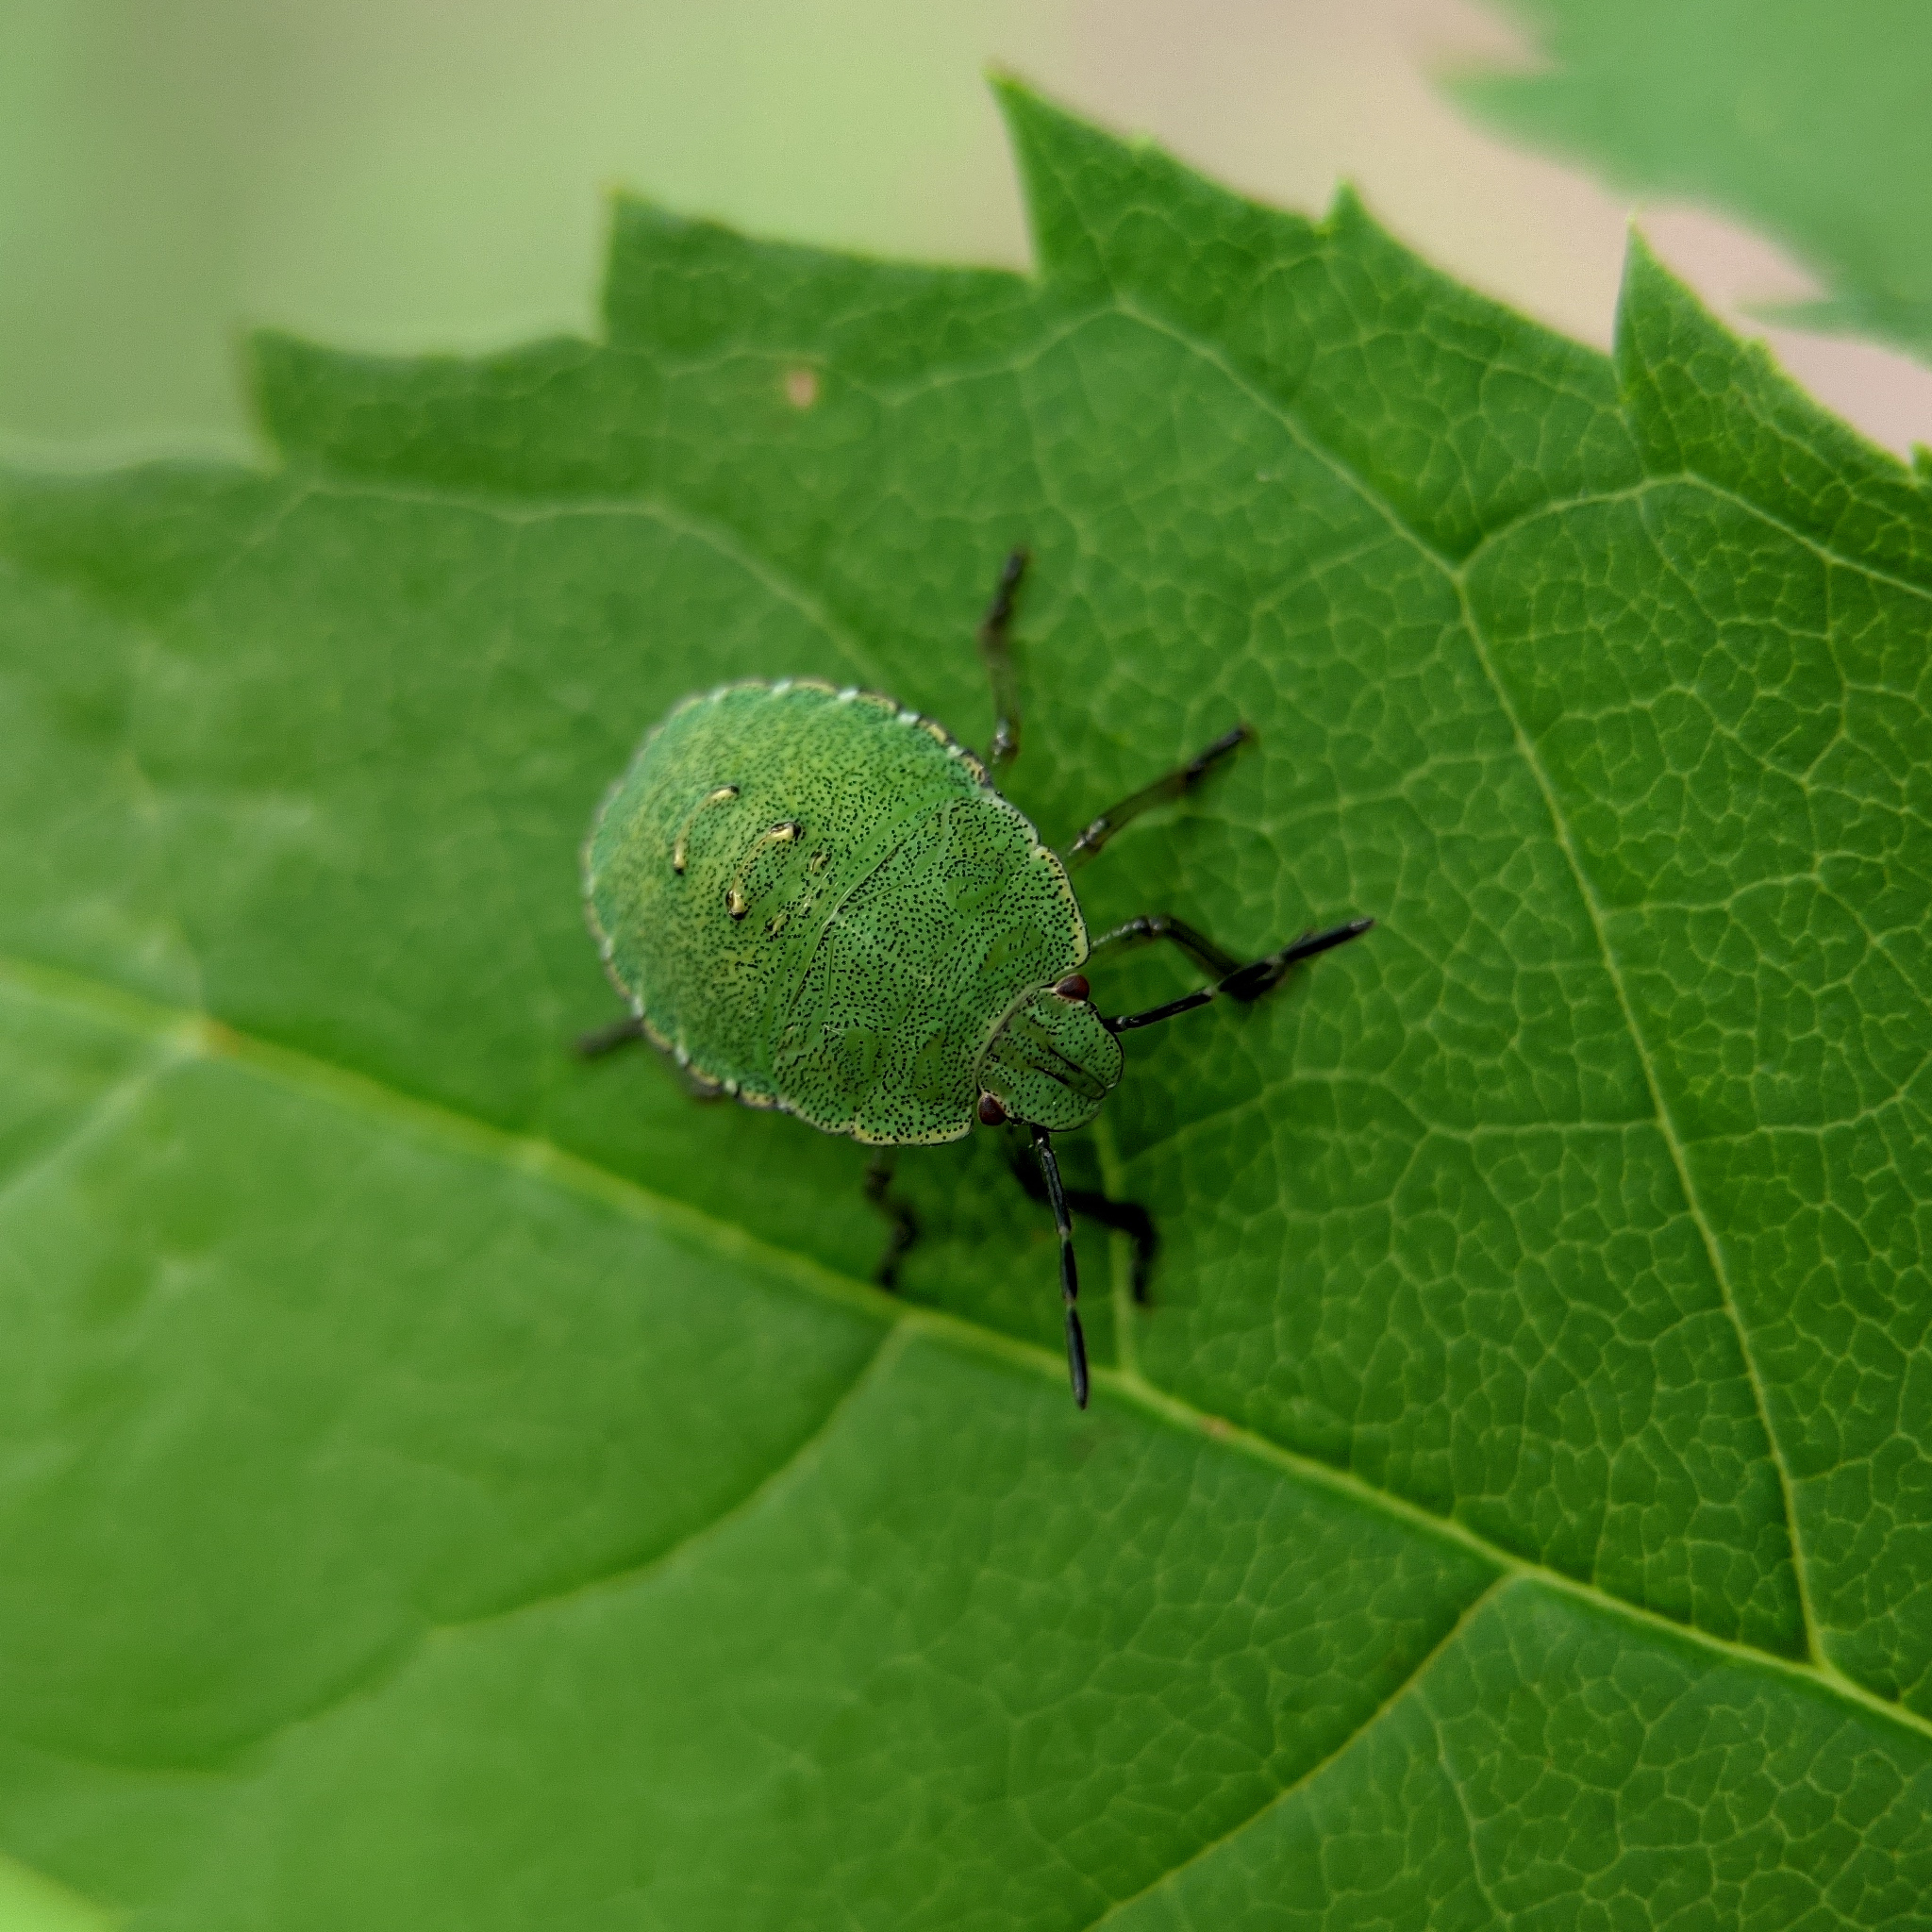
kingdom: Animalia
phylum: Arthropoda
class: Insecta
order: Hemiptera
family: Pentatomidae
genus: Palomena
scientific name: Palomena prasina
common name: Green shieldbug
